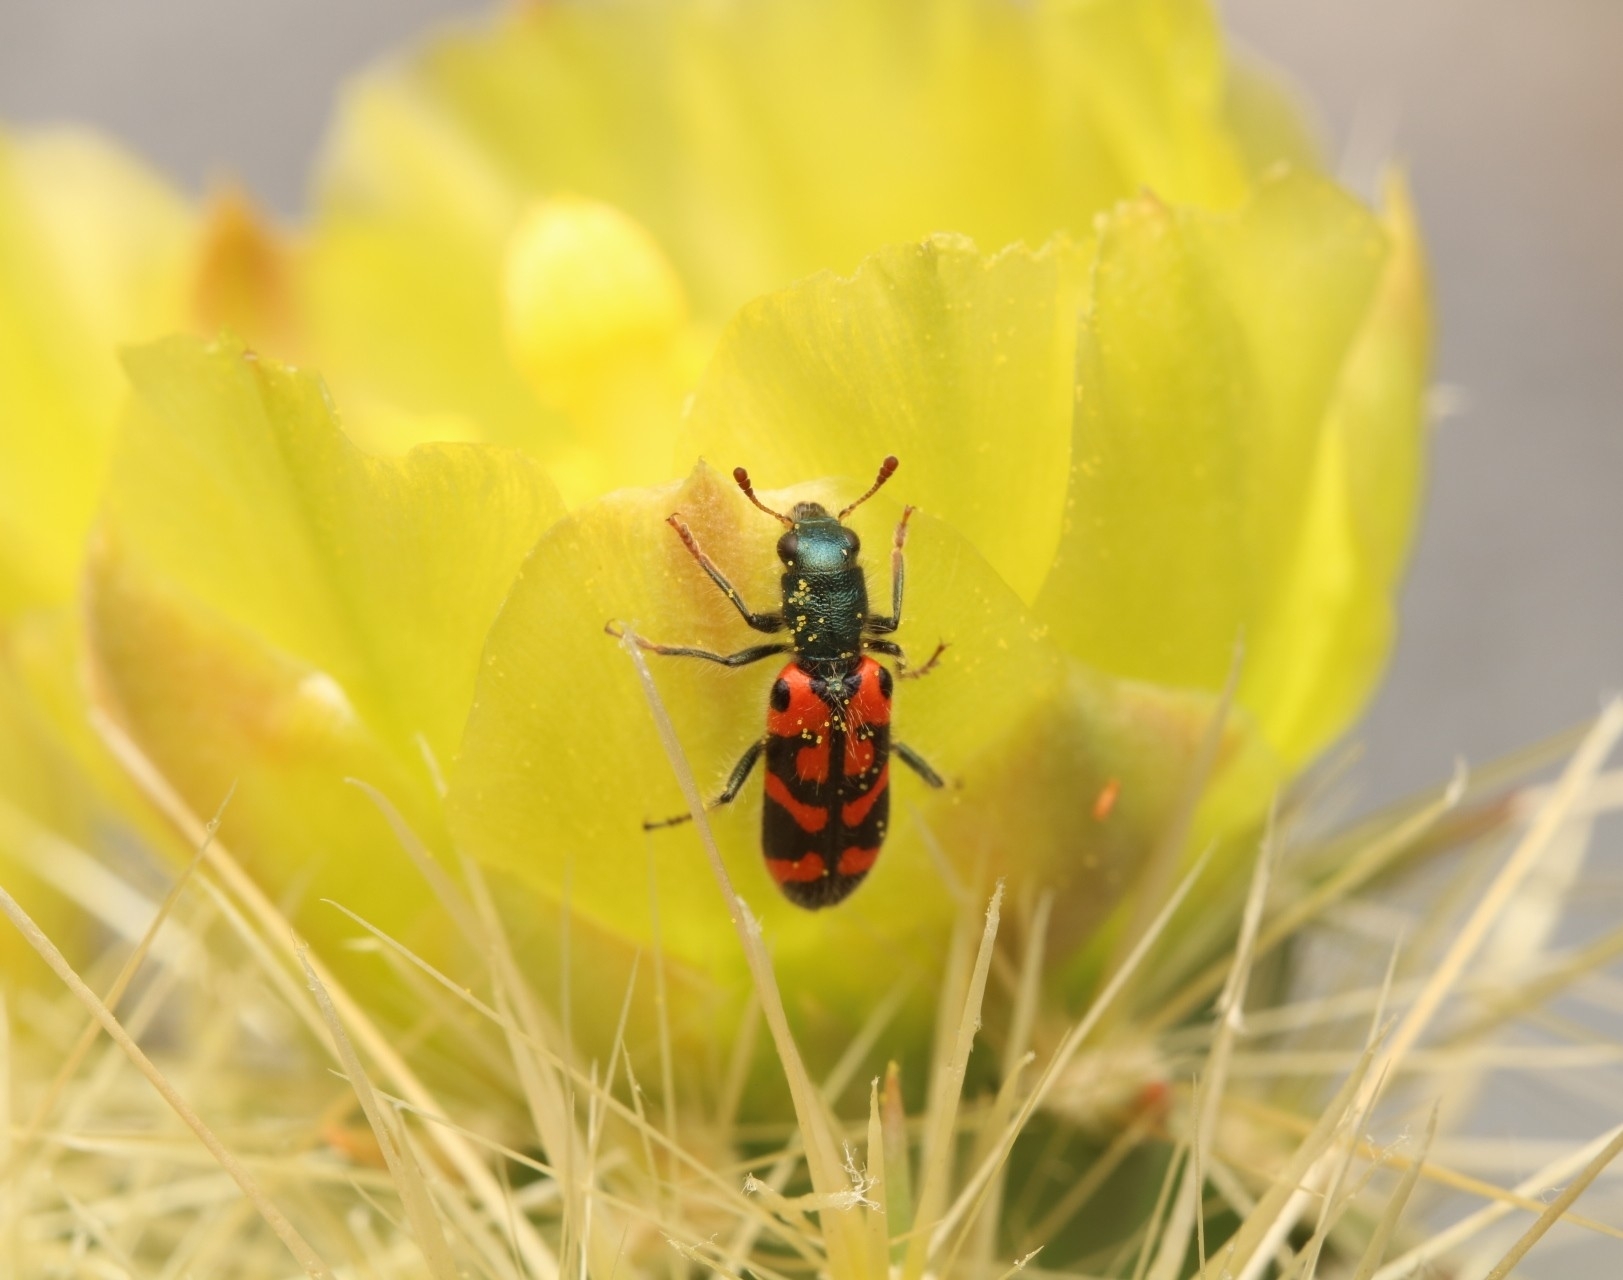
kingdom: Animalia
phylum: Arthropoda
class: Insecta
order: Coleoptera
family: Cleridae
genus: Trichodes
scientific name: Trichodes ornatus
